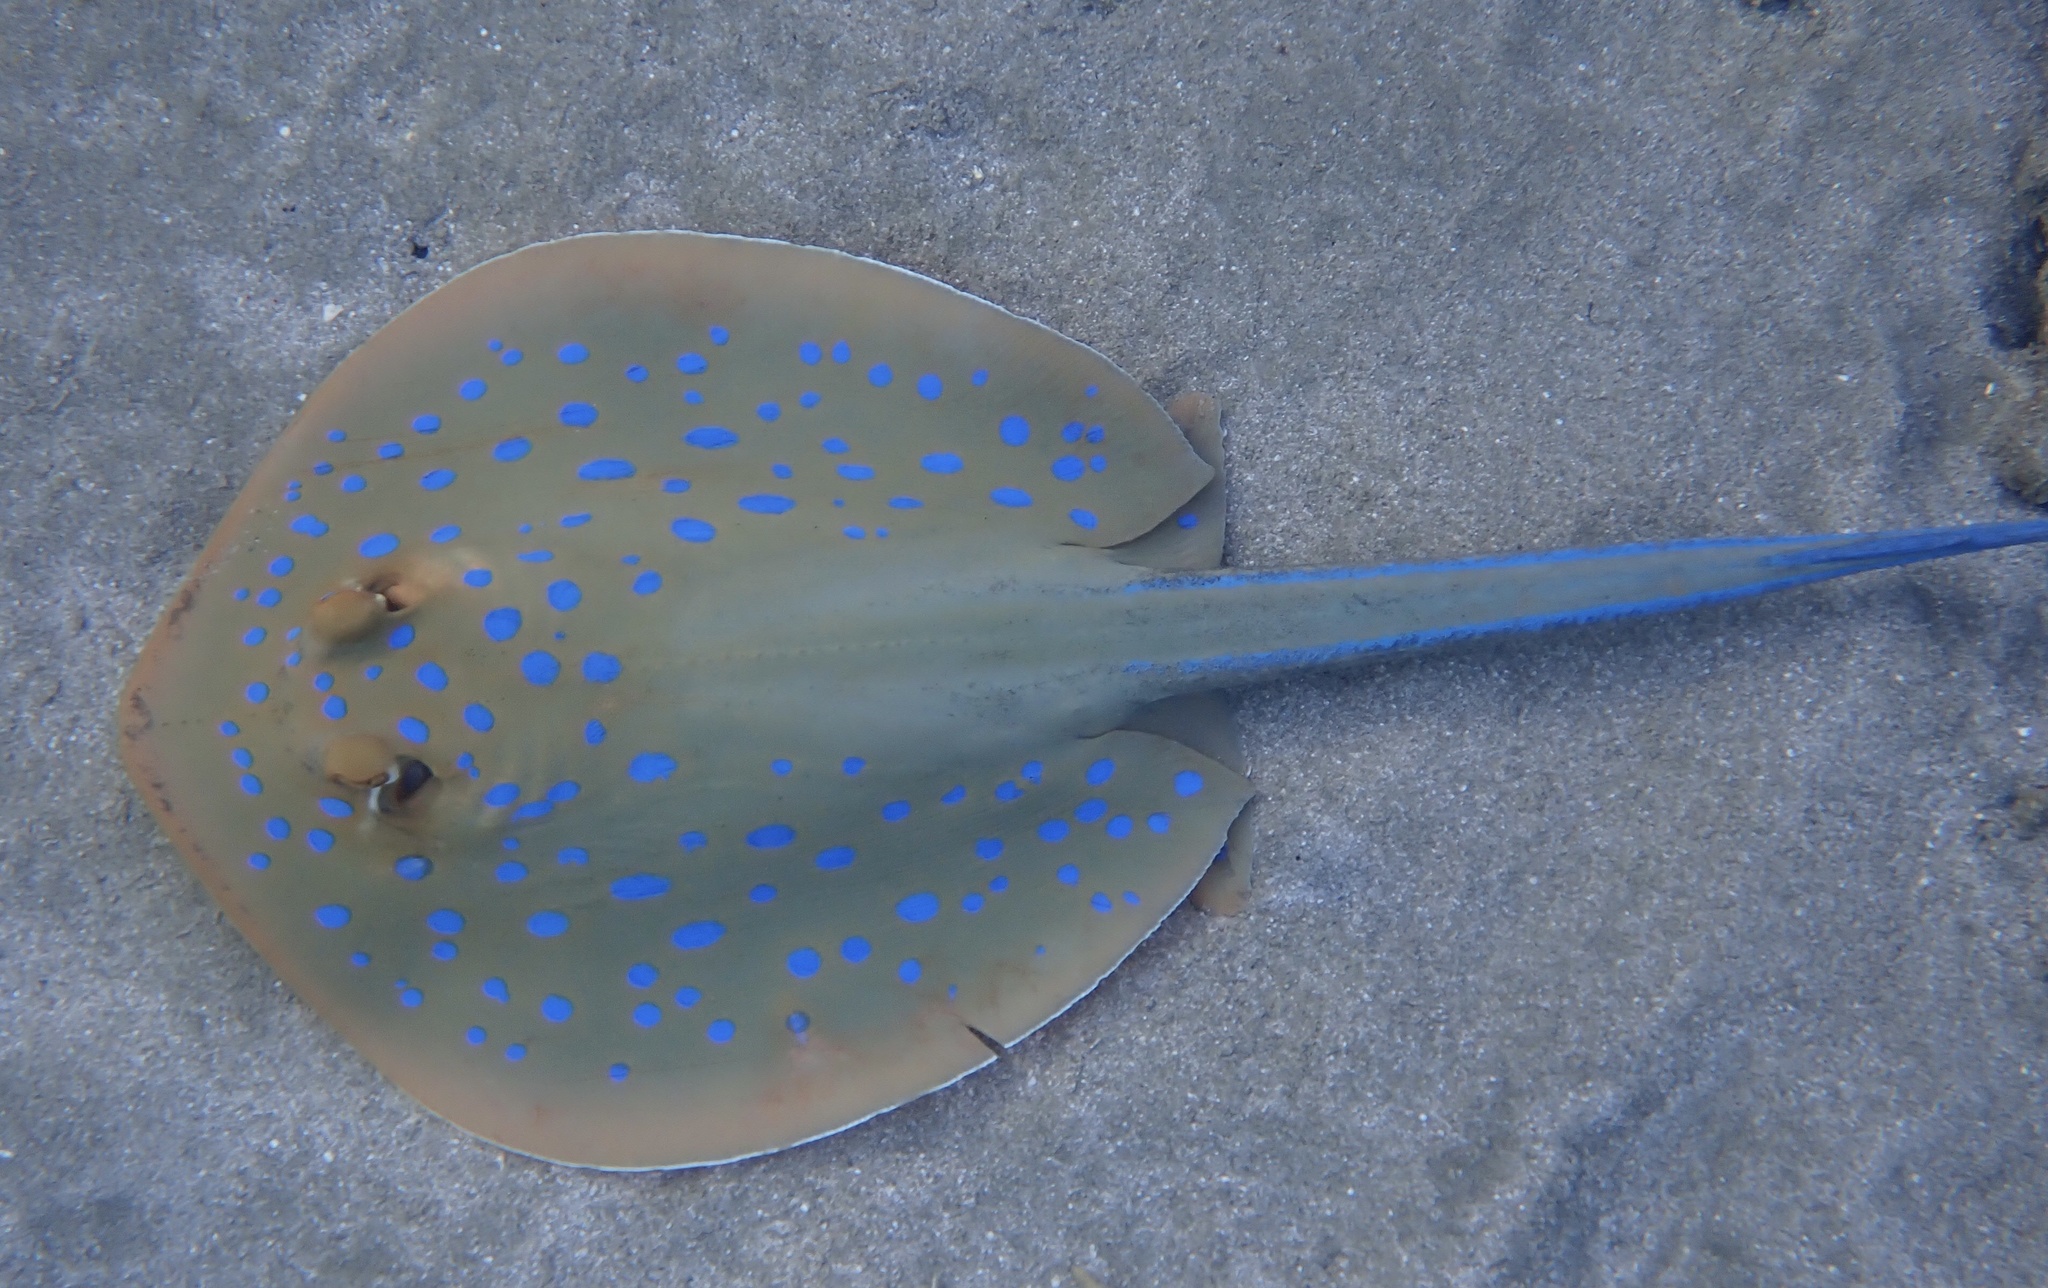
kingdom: Animalia
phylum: Chordata
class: Elasmobranchii
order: Myliobatiformes
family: Dasyatidae
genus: Taeniura
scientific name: Taeniura lymma
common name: Bluespotted ribbontail ray
